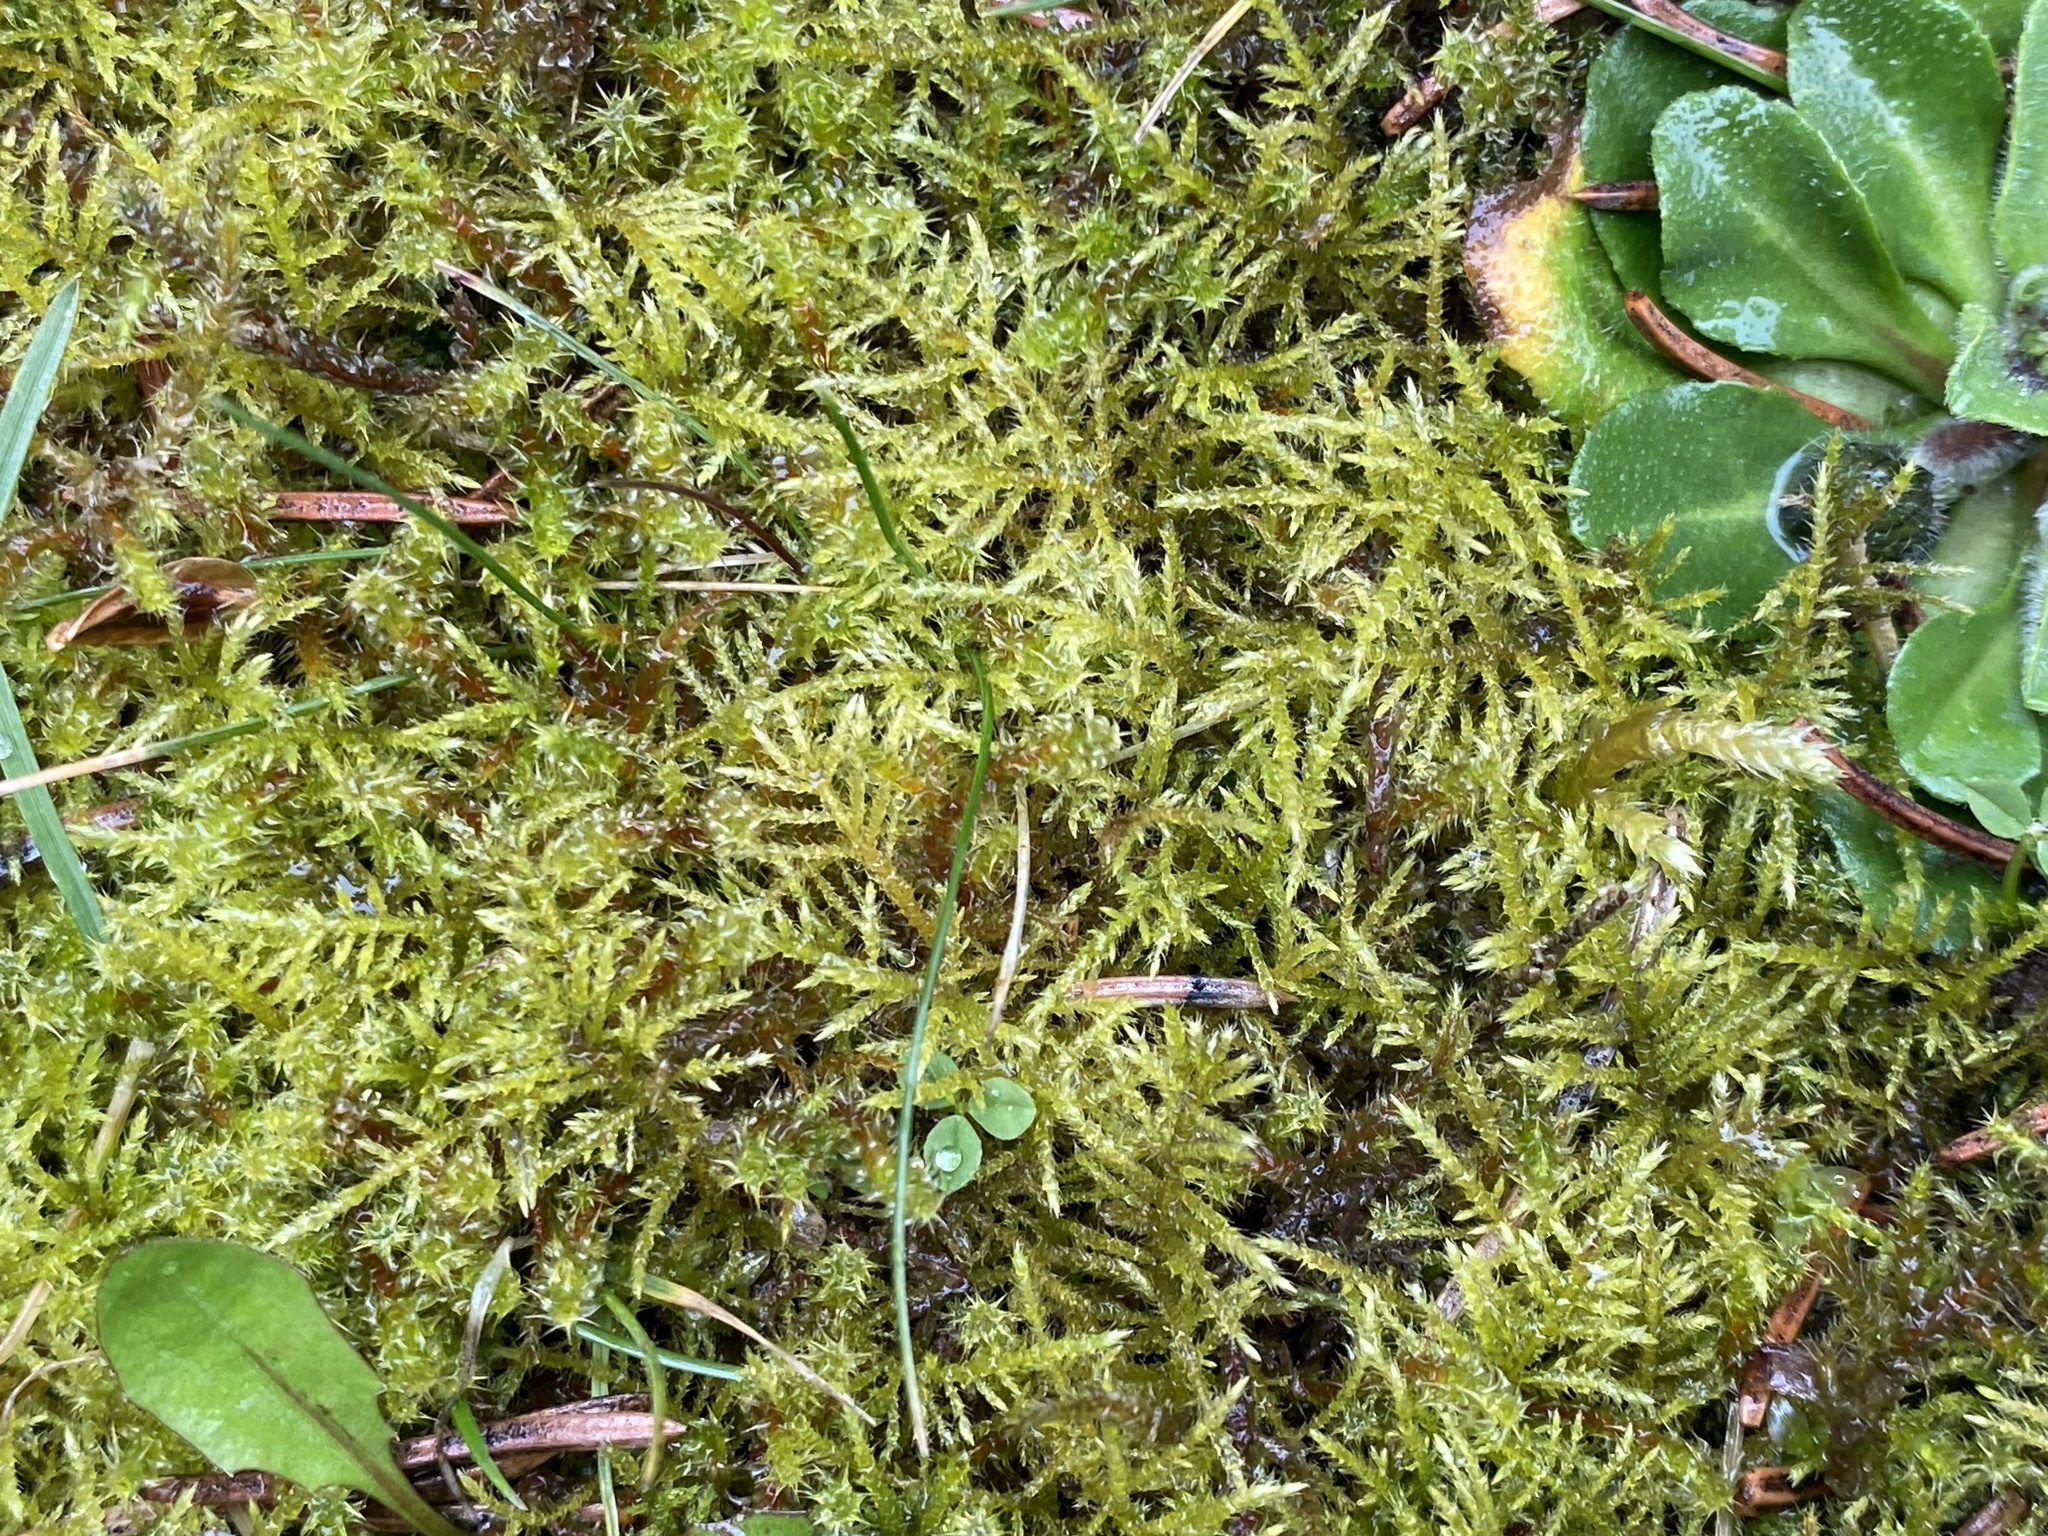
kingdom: Plantae
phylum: Bryophyta
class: Bryopsida
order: Hypnales
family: Brachytheciaceae
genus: Kindbergia
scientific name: Kindbergia praelonga
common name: Slender beaked moss
